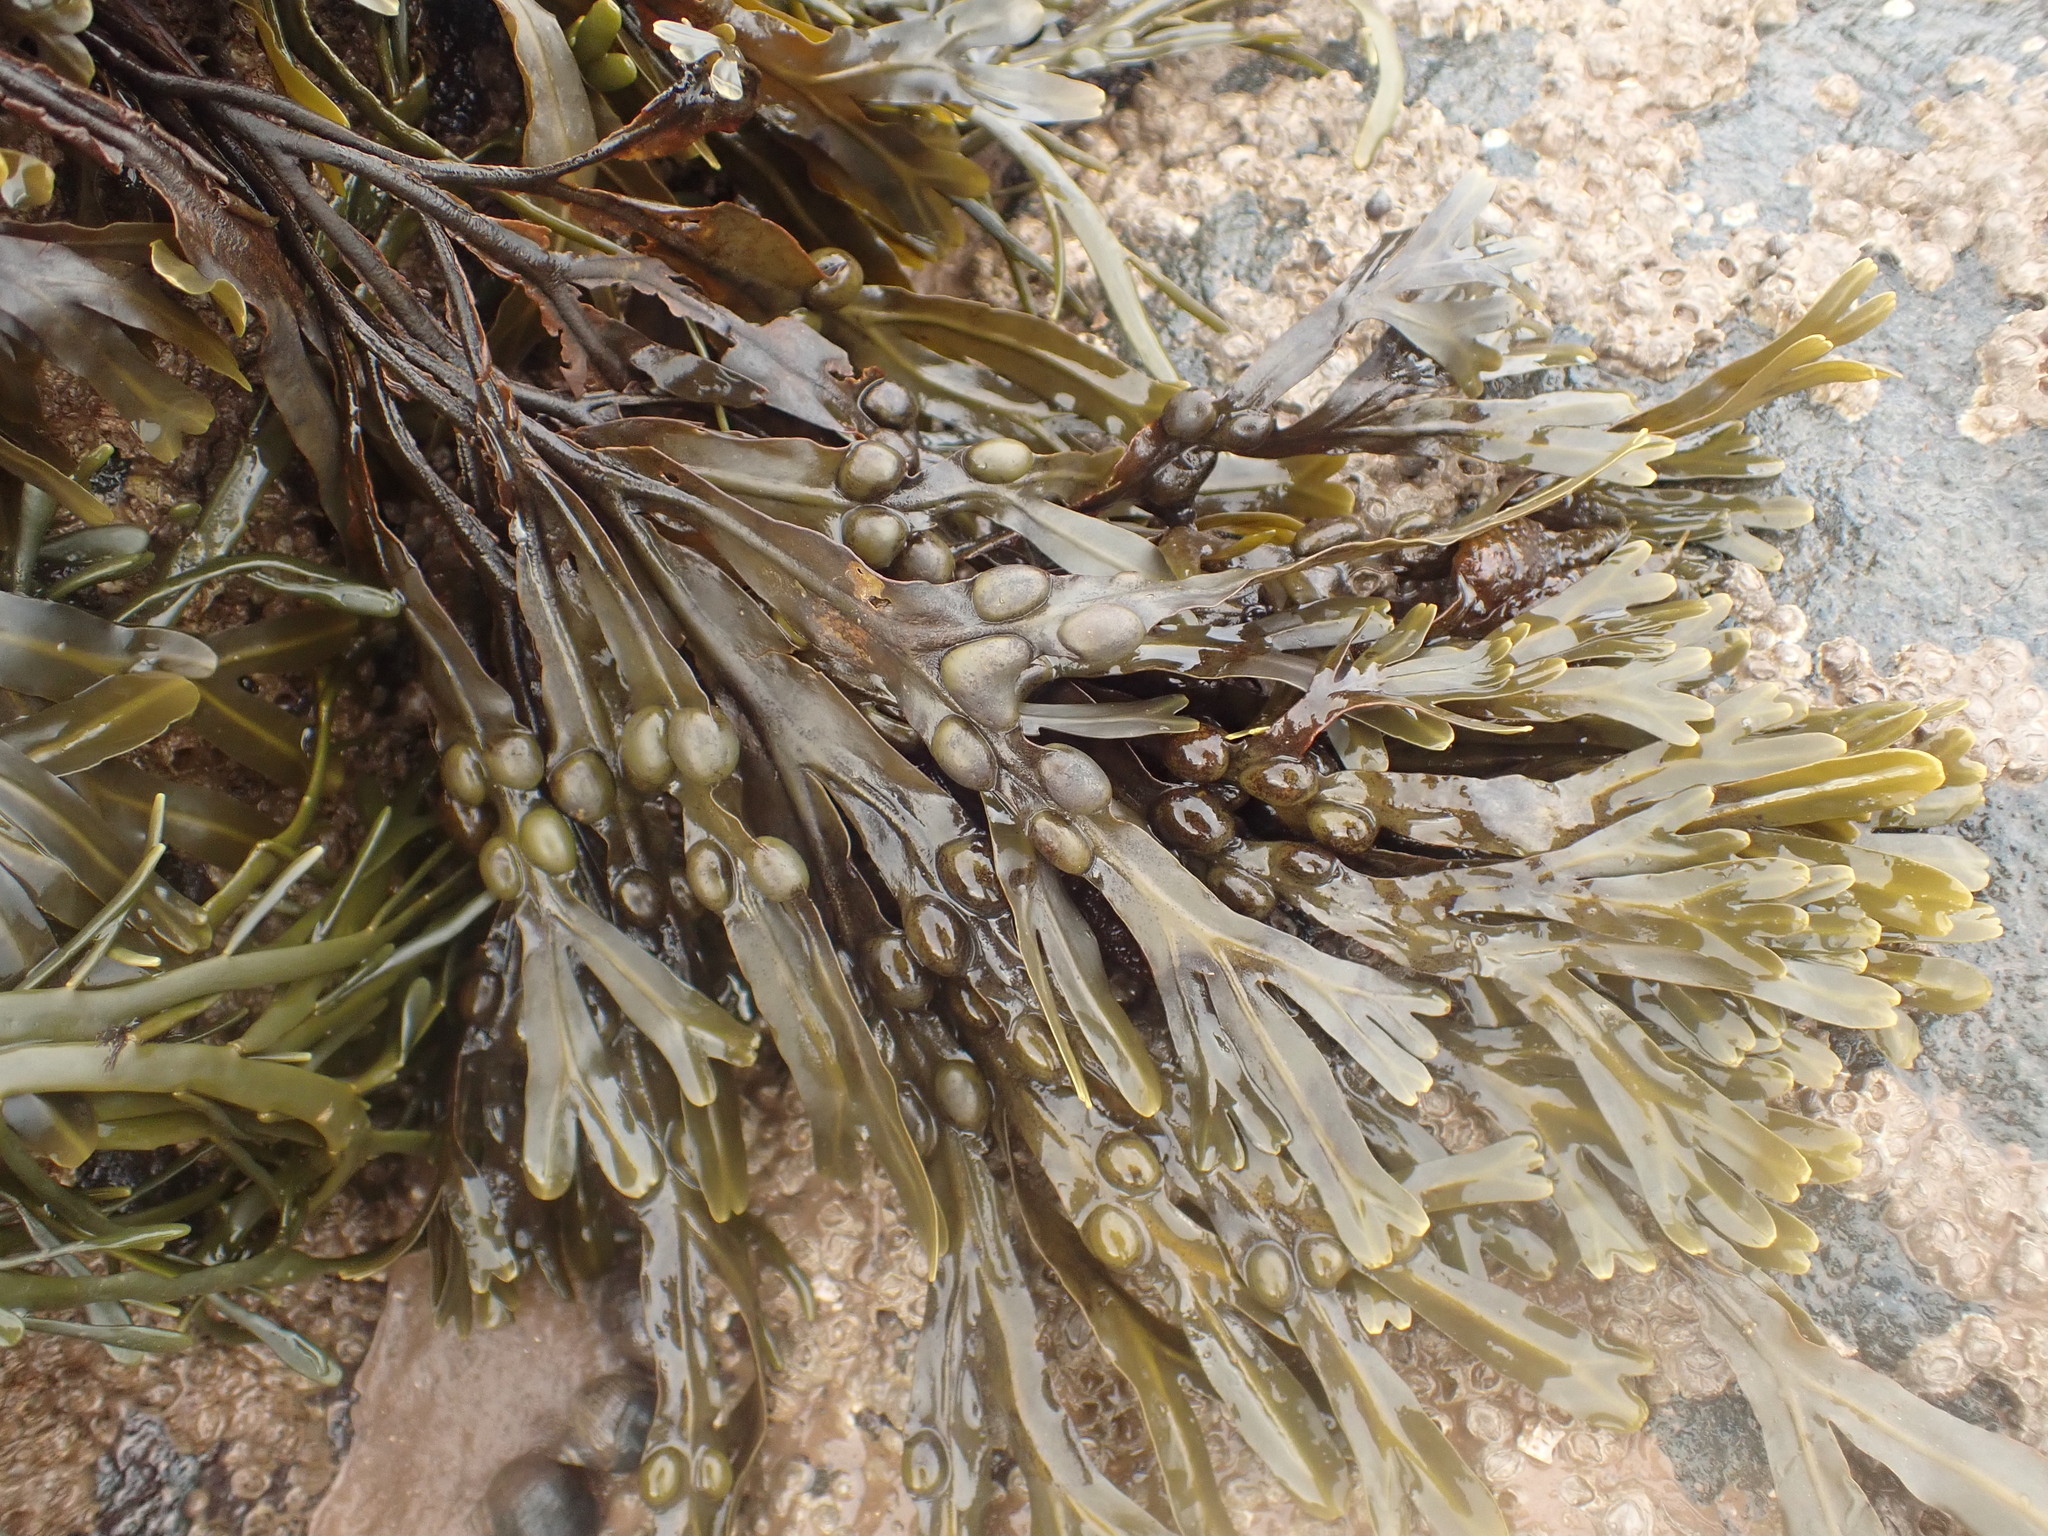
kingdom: Chromista
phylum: Ochrophyta
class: Phaeophyceae
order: Fucales
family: Fucaceae
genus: Fucus
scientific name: Fucus vesiculosus
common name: Bladder wrack
